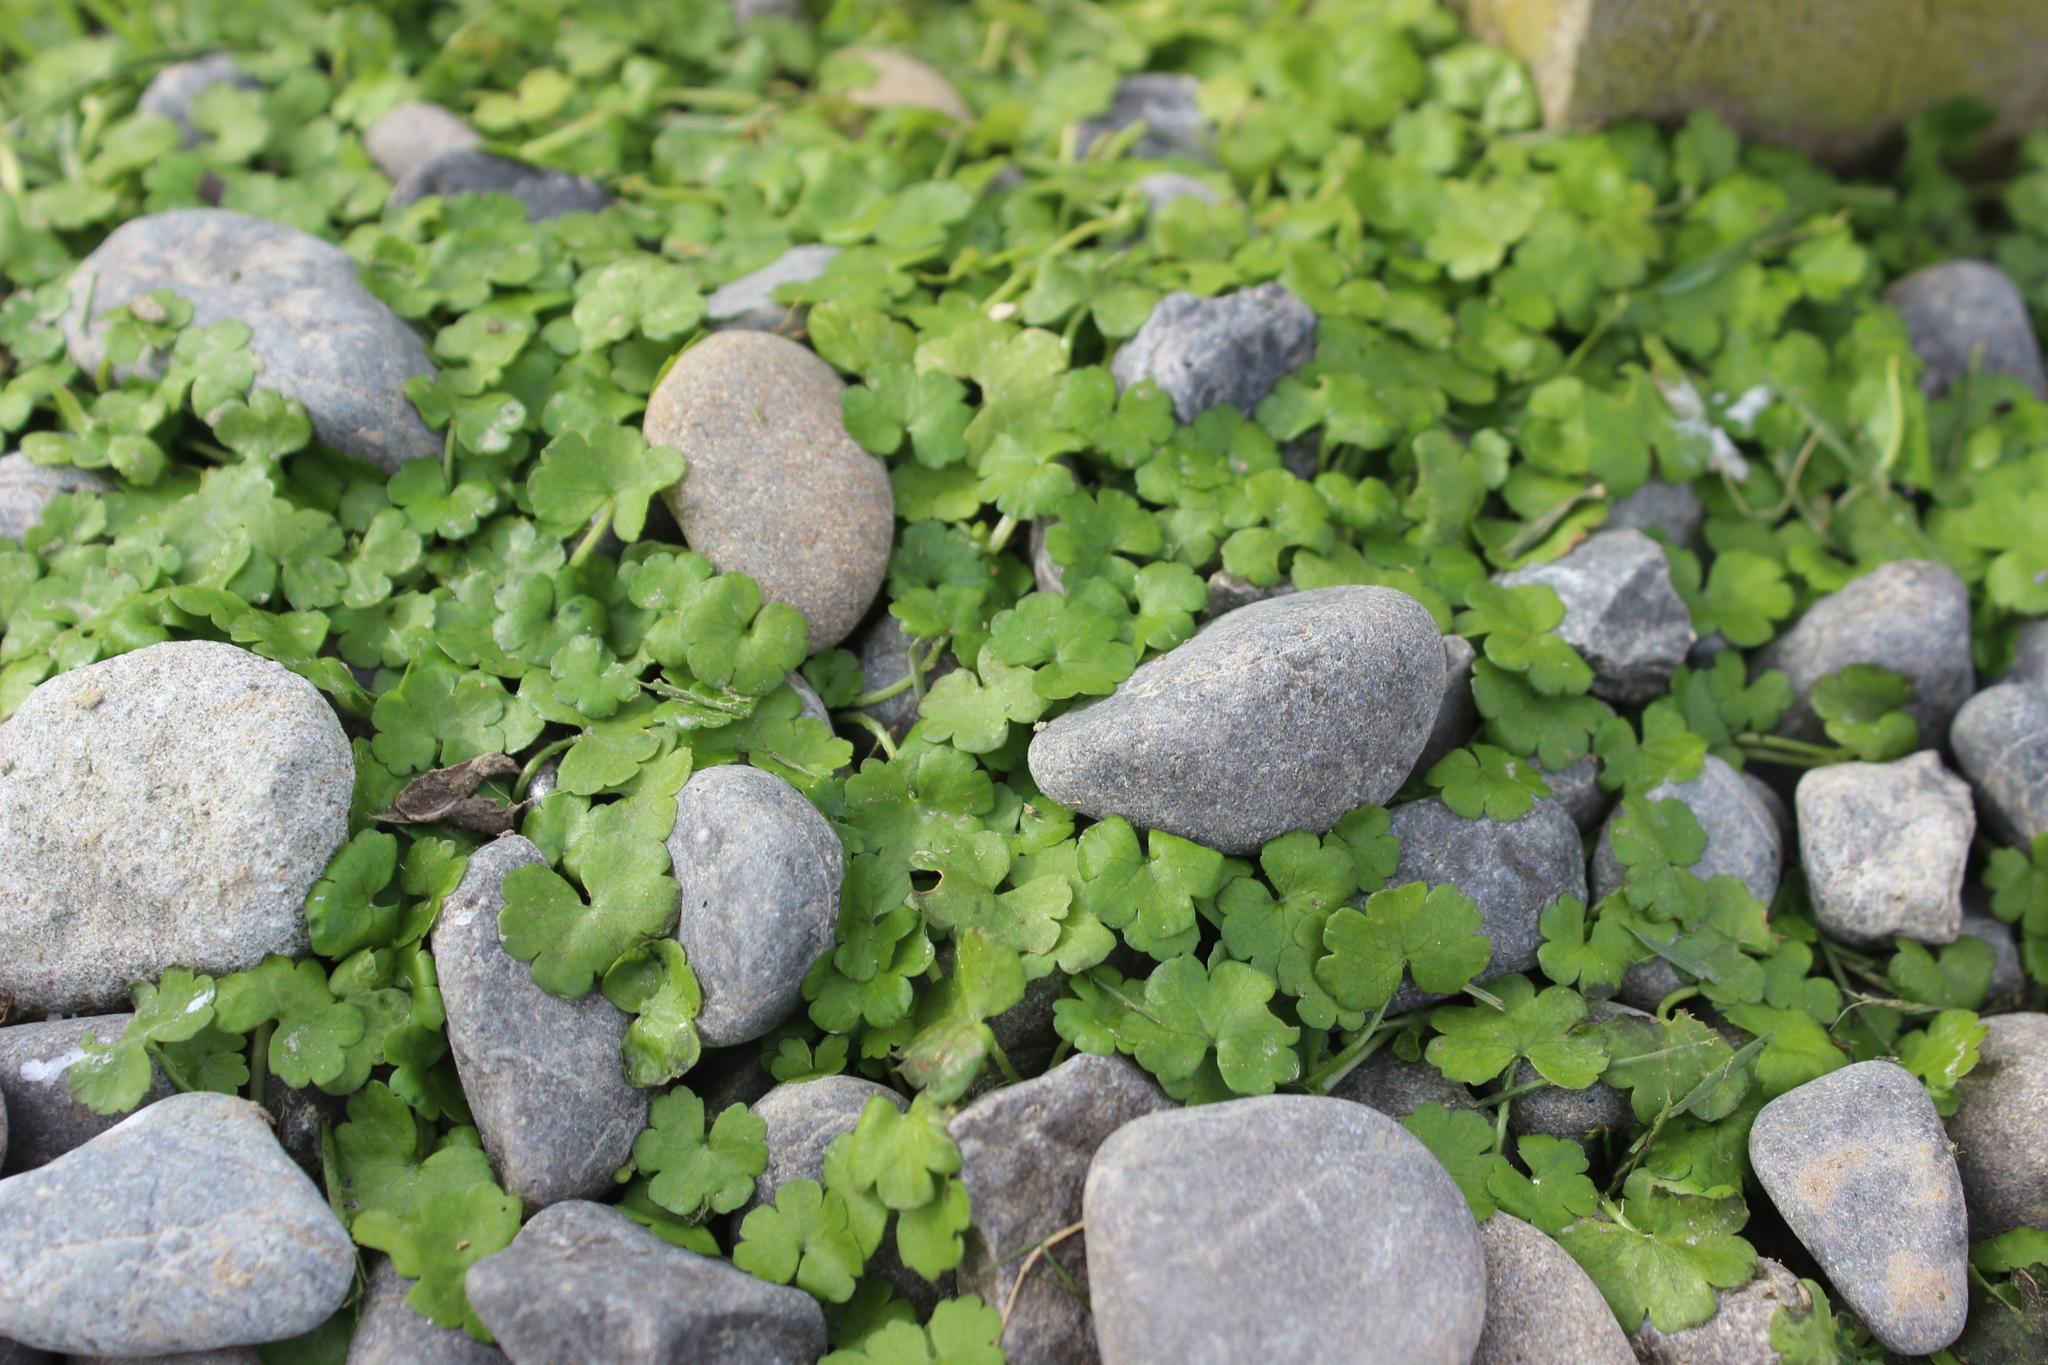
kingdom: Plantae
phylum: Tracheophyta
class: Magnoliopsida
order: Apiales
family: Araliaceae
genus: Hydrocotyle
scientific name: Hydrocotyle heteromeria
